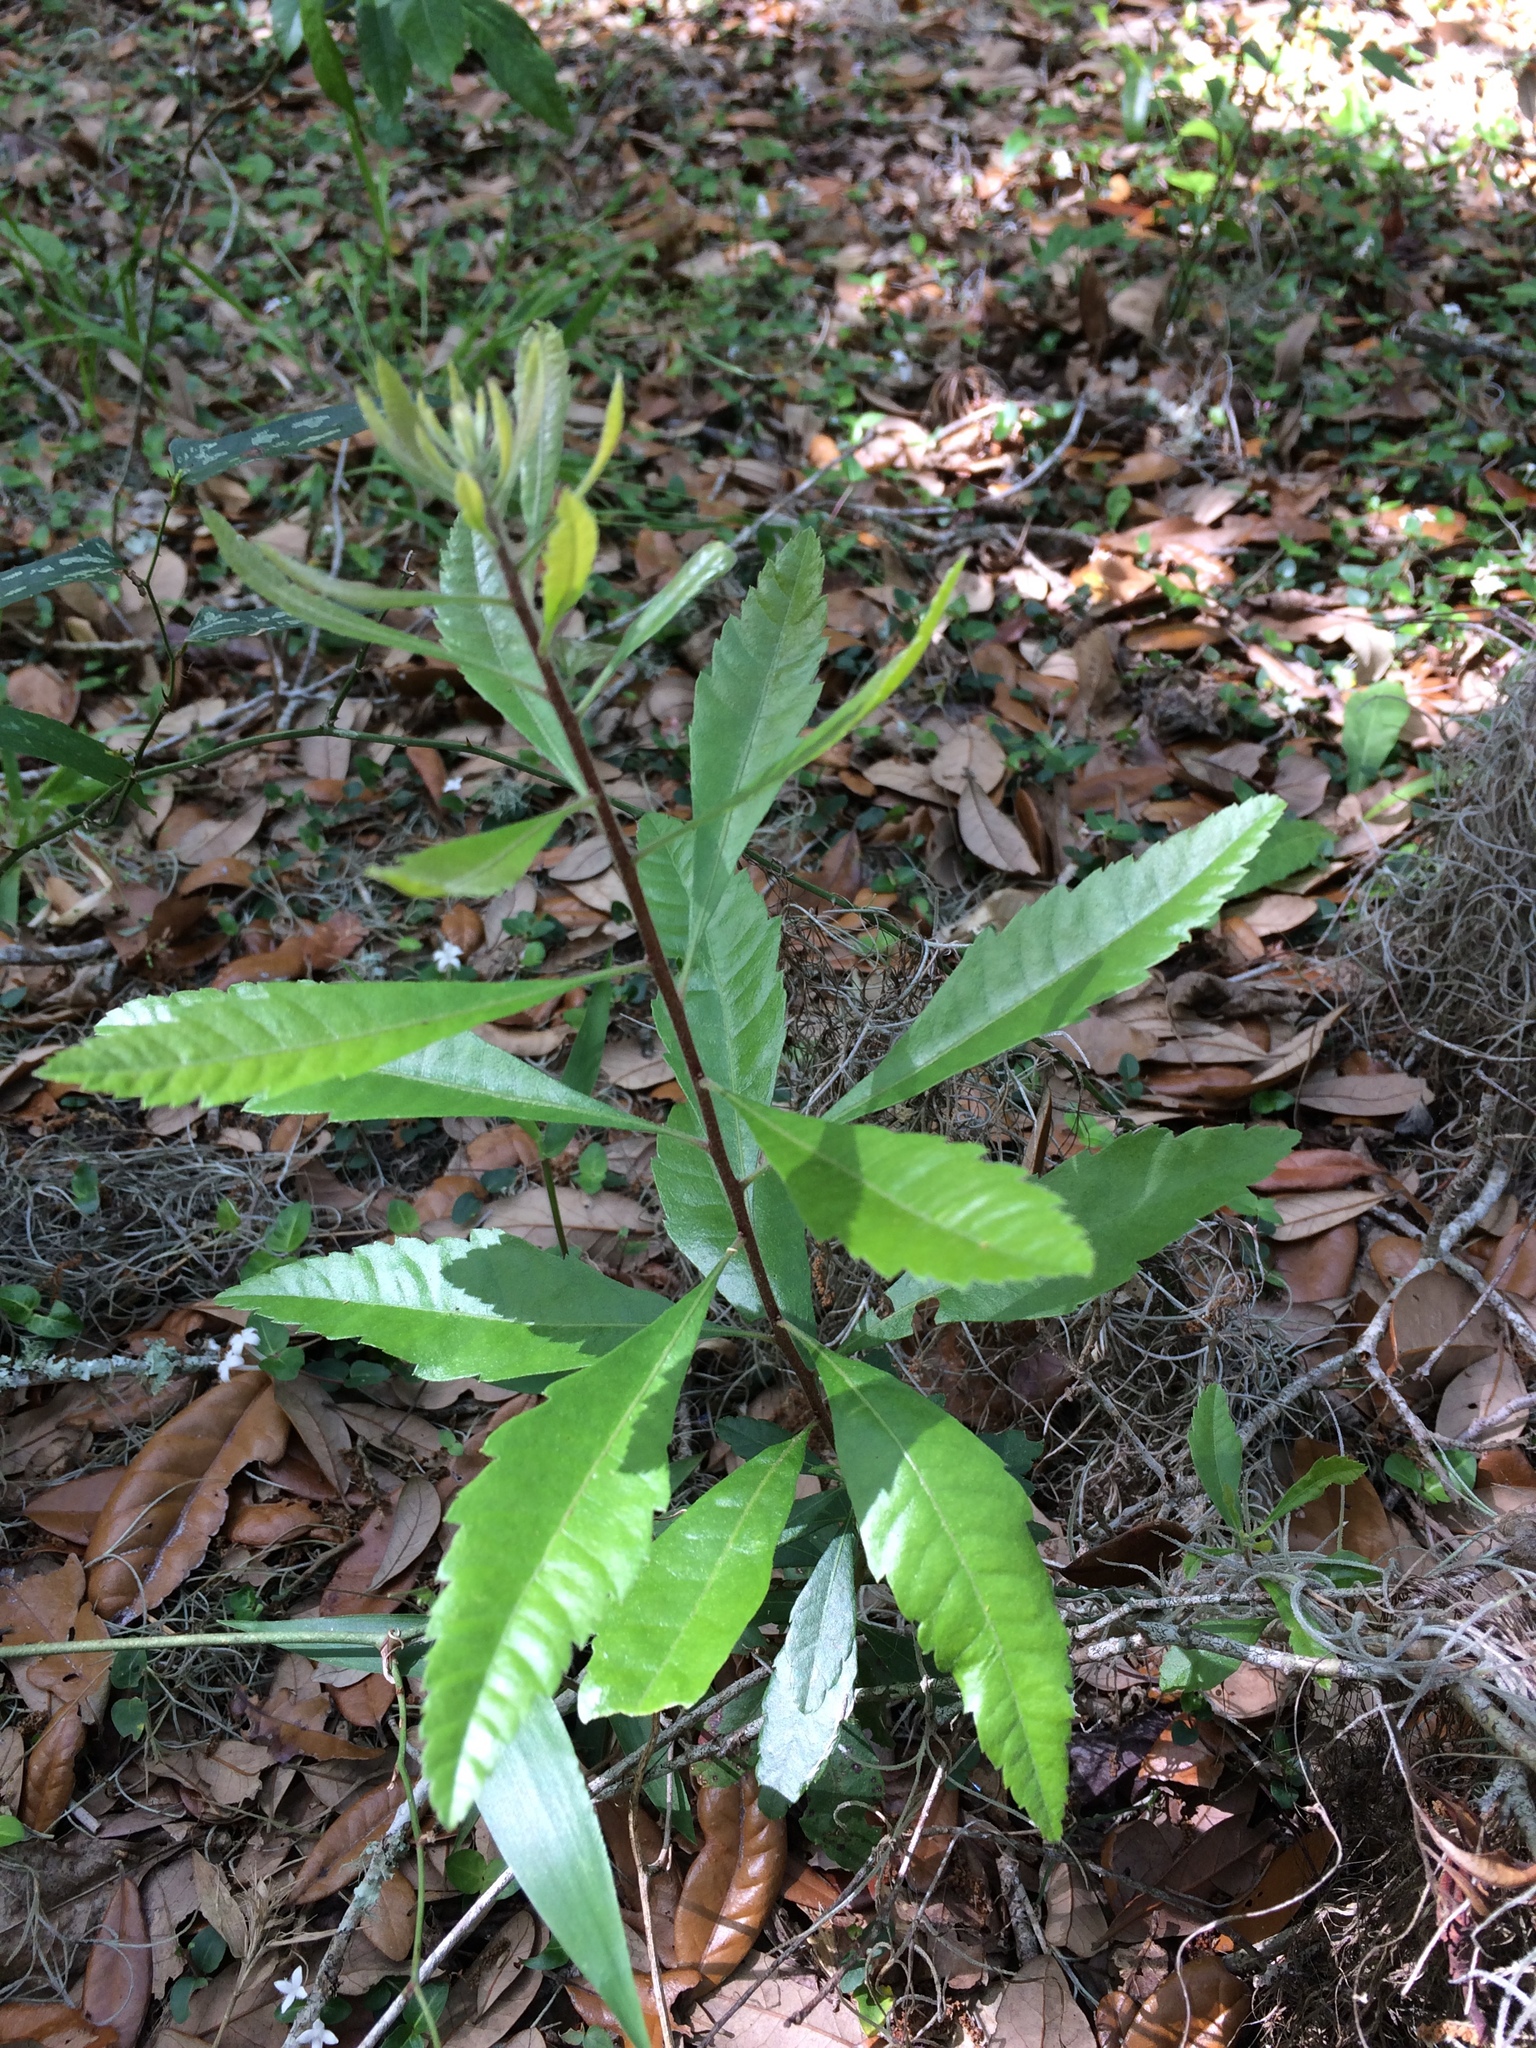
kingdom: Plantae
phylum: Tracheophyta
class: Magnoliopsida
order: Fagales
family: Myricaceae
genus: Morella
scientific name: Morella cerifera
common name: Wax myrtle
